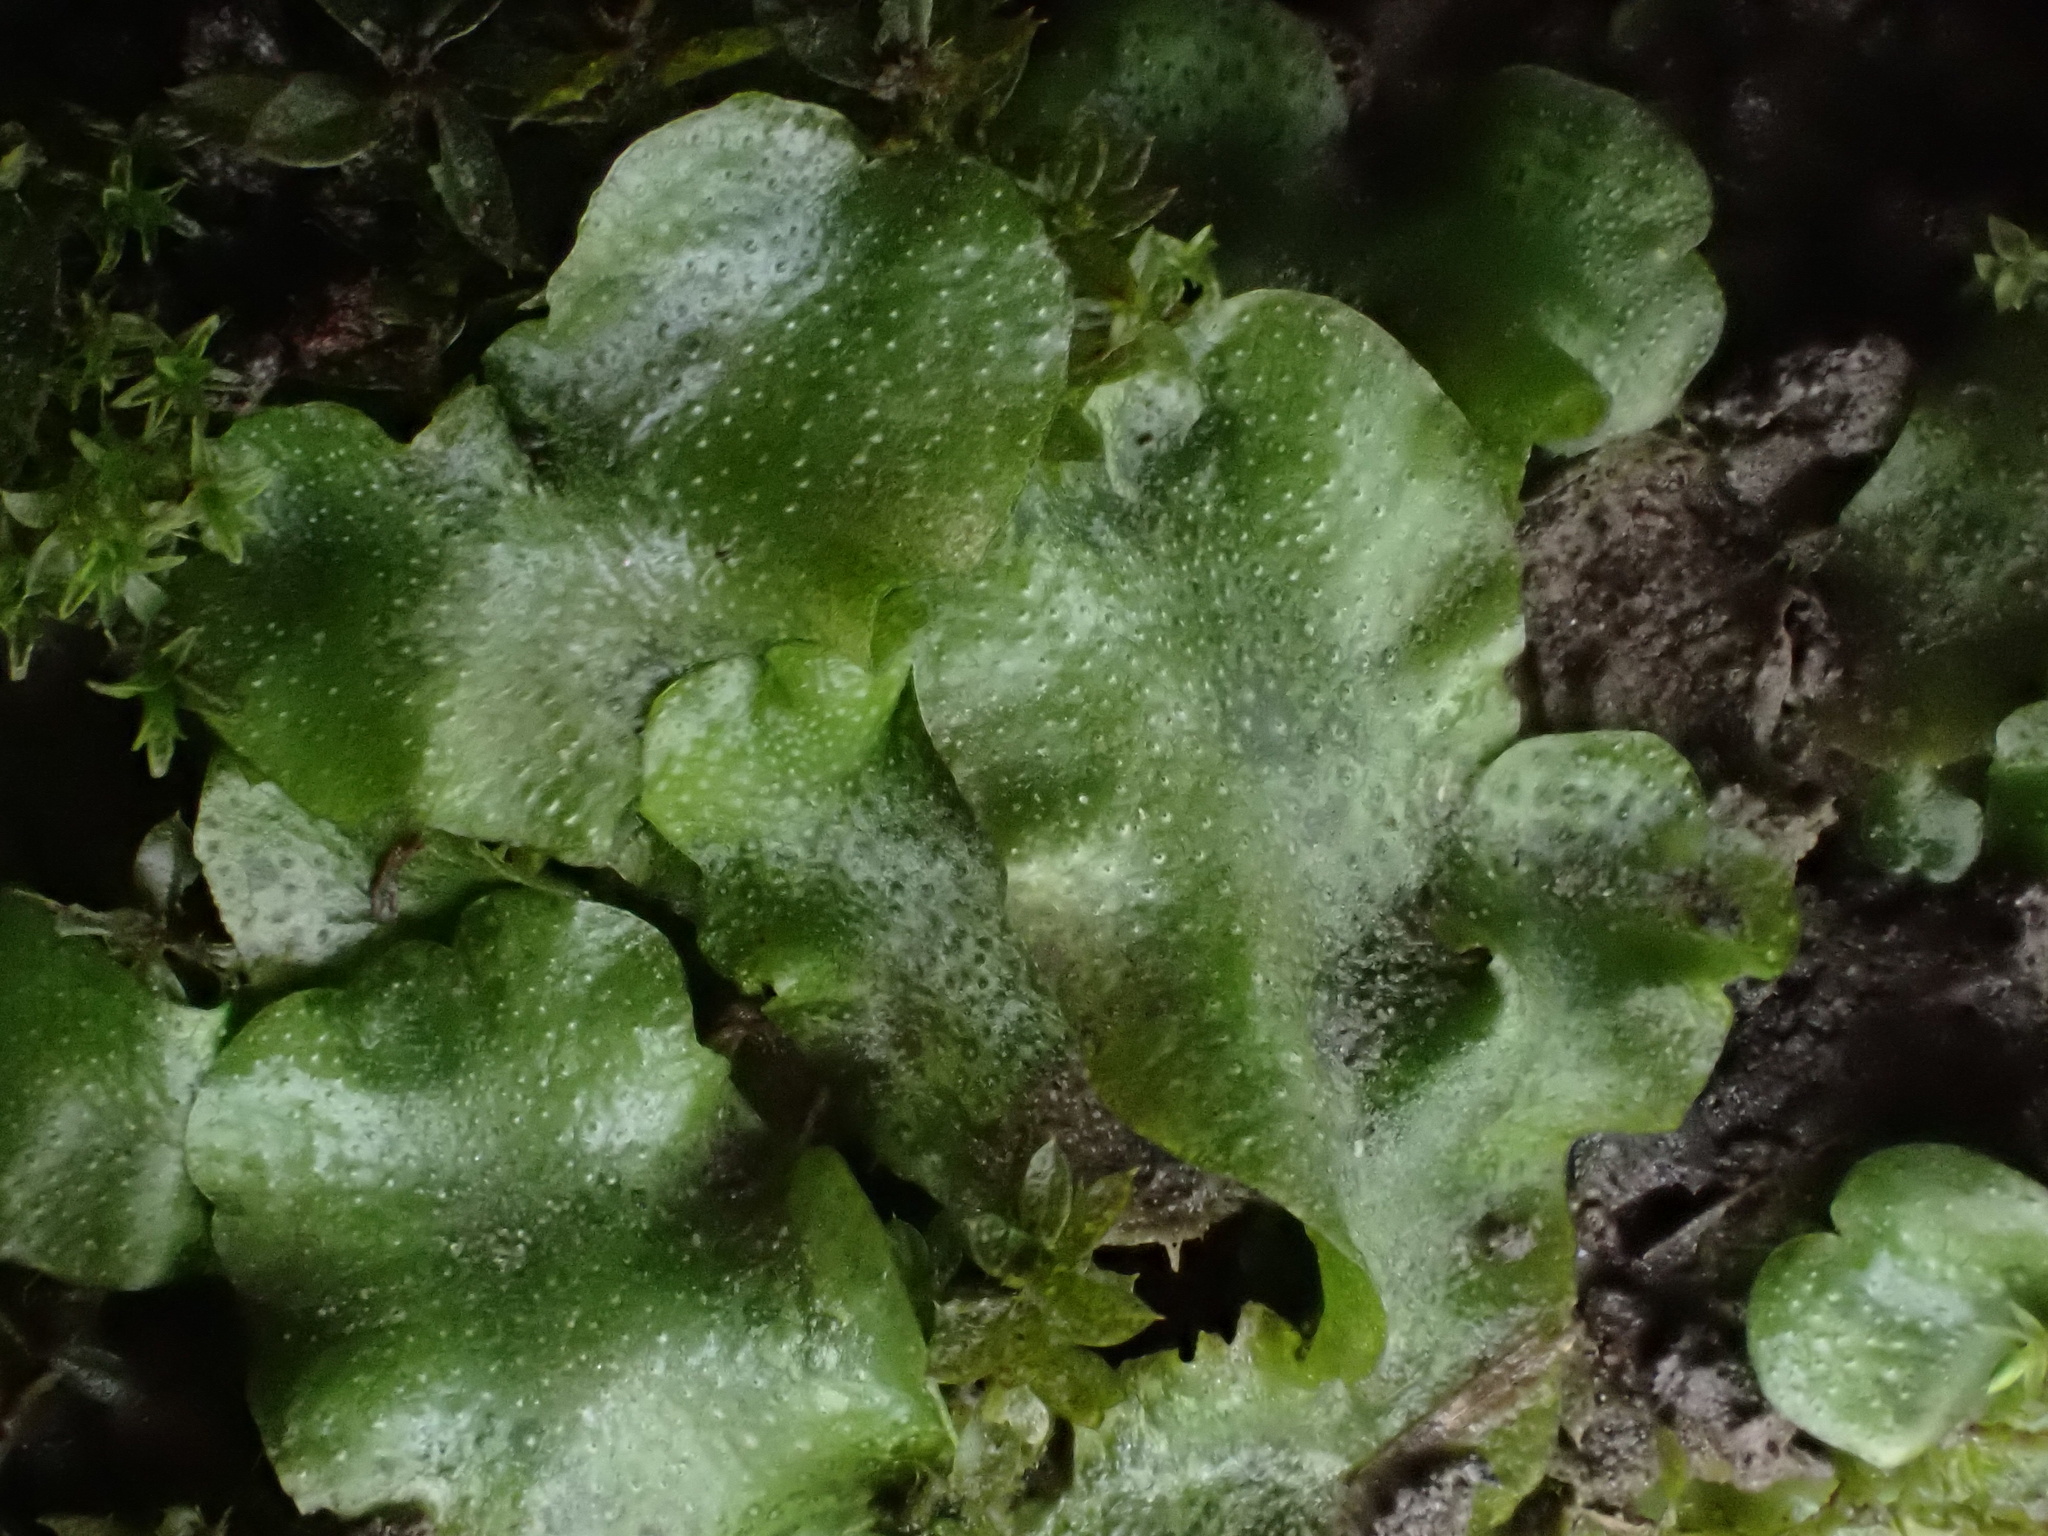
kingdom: Plantae
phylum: Marchantiophyta
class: Marchantiopsida
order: Lunulariales
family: Lunulariaceae
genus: Lunularia
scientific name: Lunularia cruciata
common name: Crescent-cup liverwort
